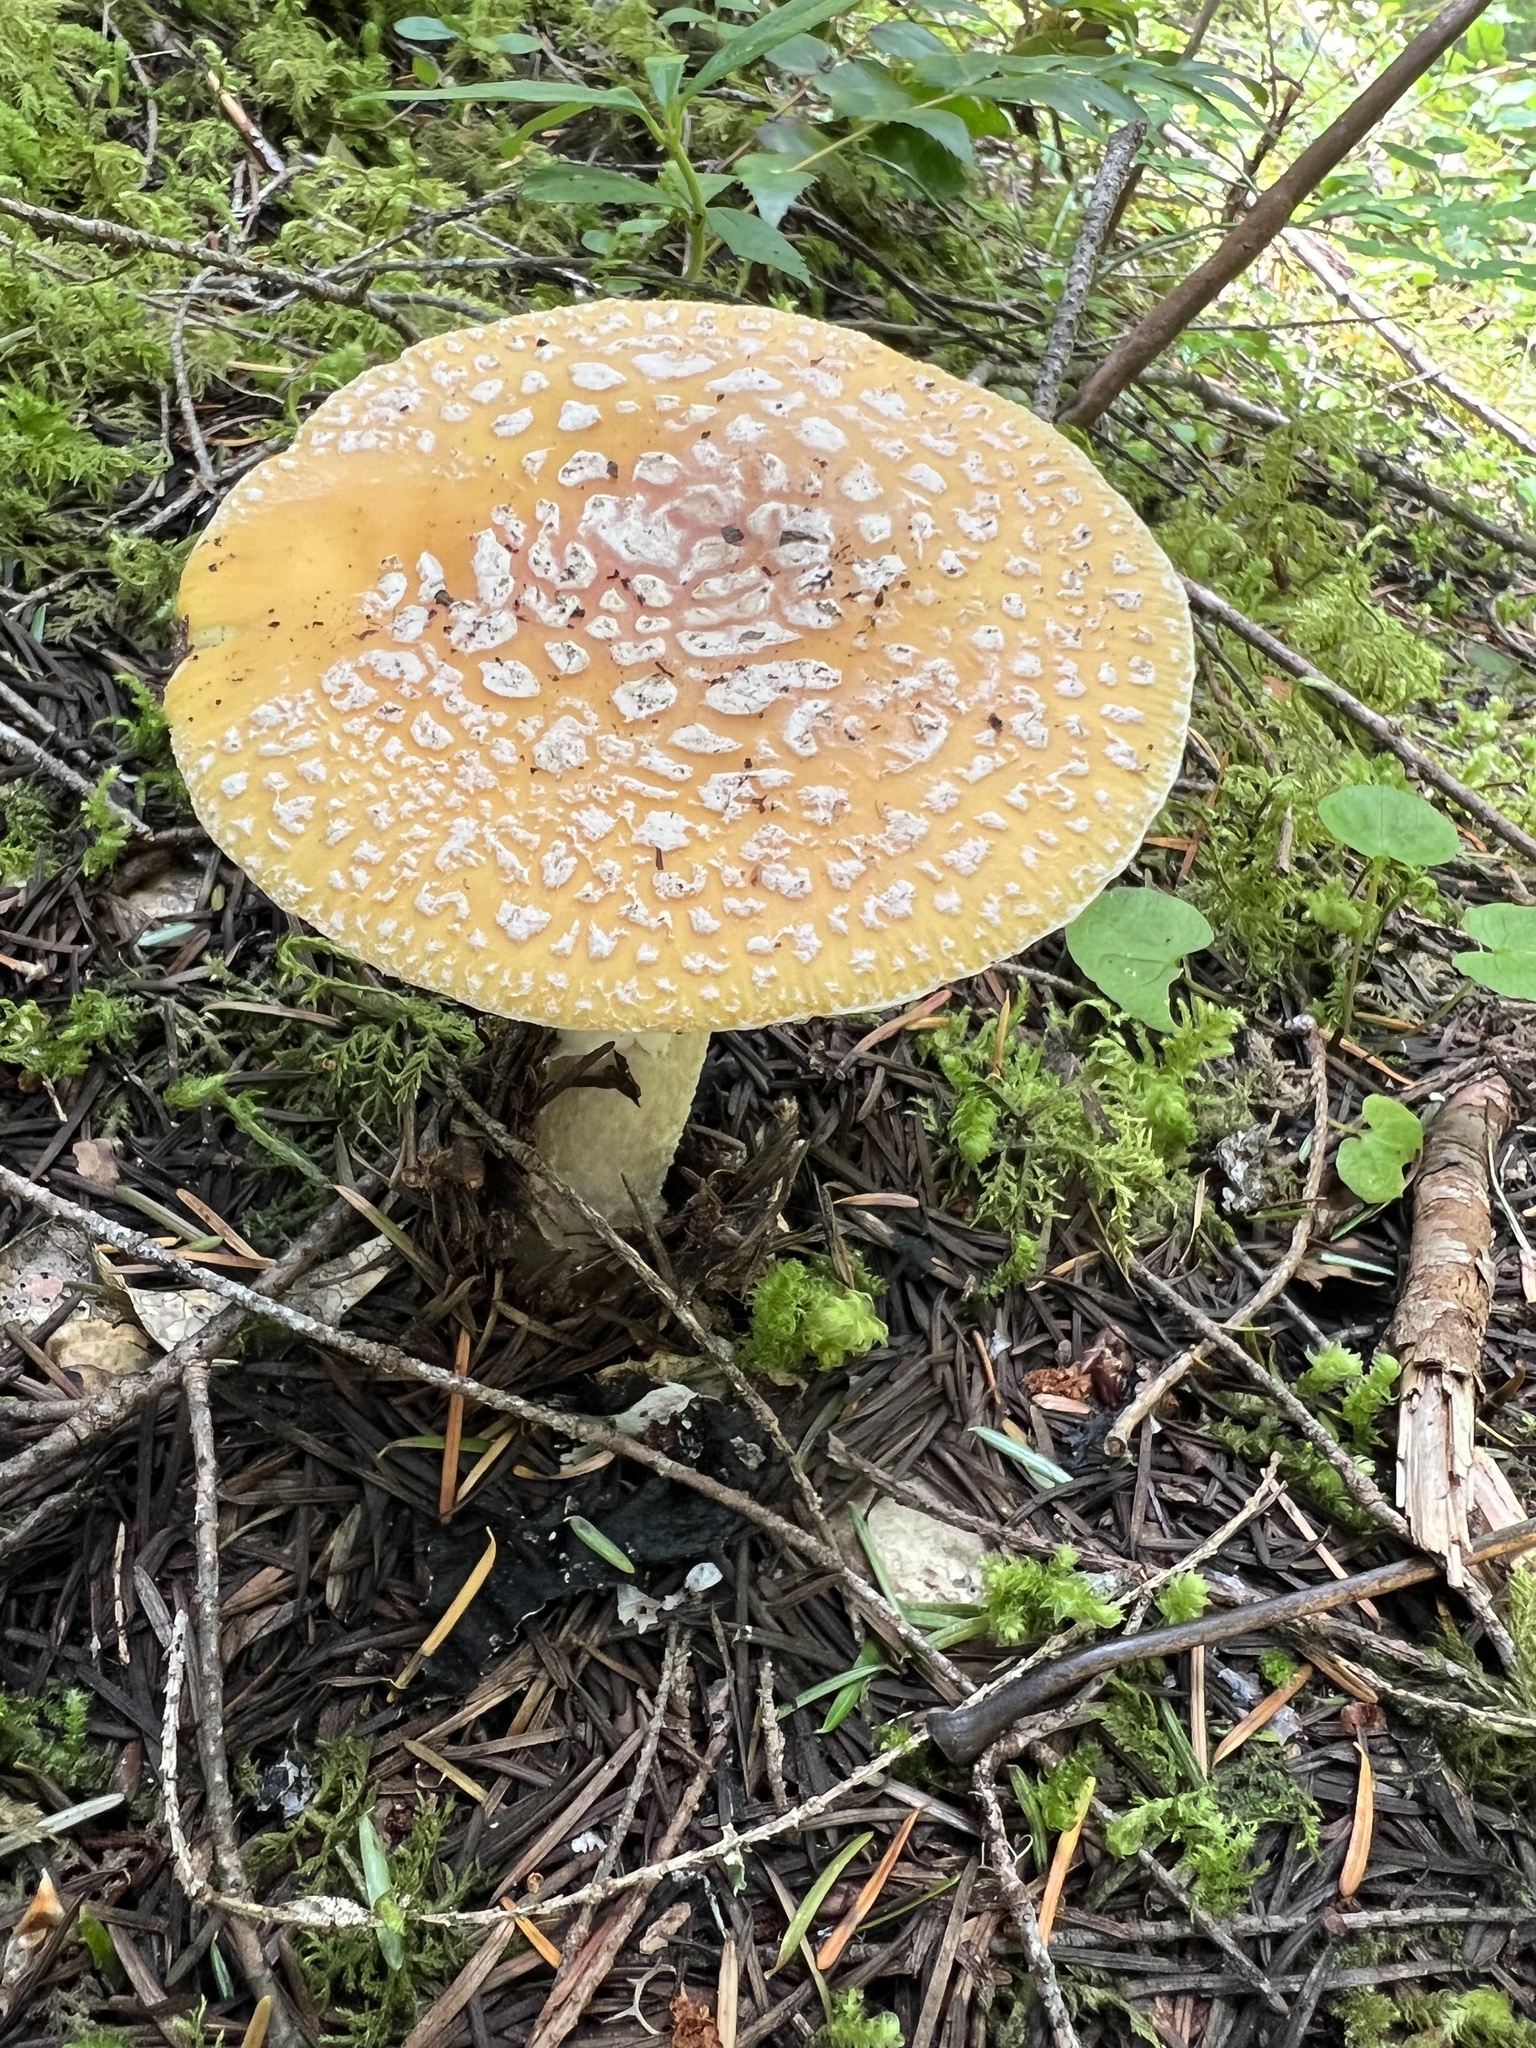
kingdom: Fungi
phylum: Basidiomycota
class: Agaricomycetes
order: Agaricales
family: Amanitaceae
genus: Amanita
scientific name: Amanita aprica
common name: Sunshine amanita
